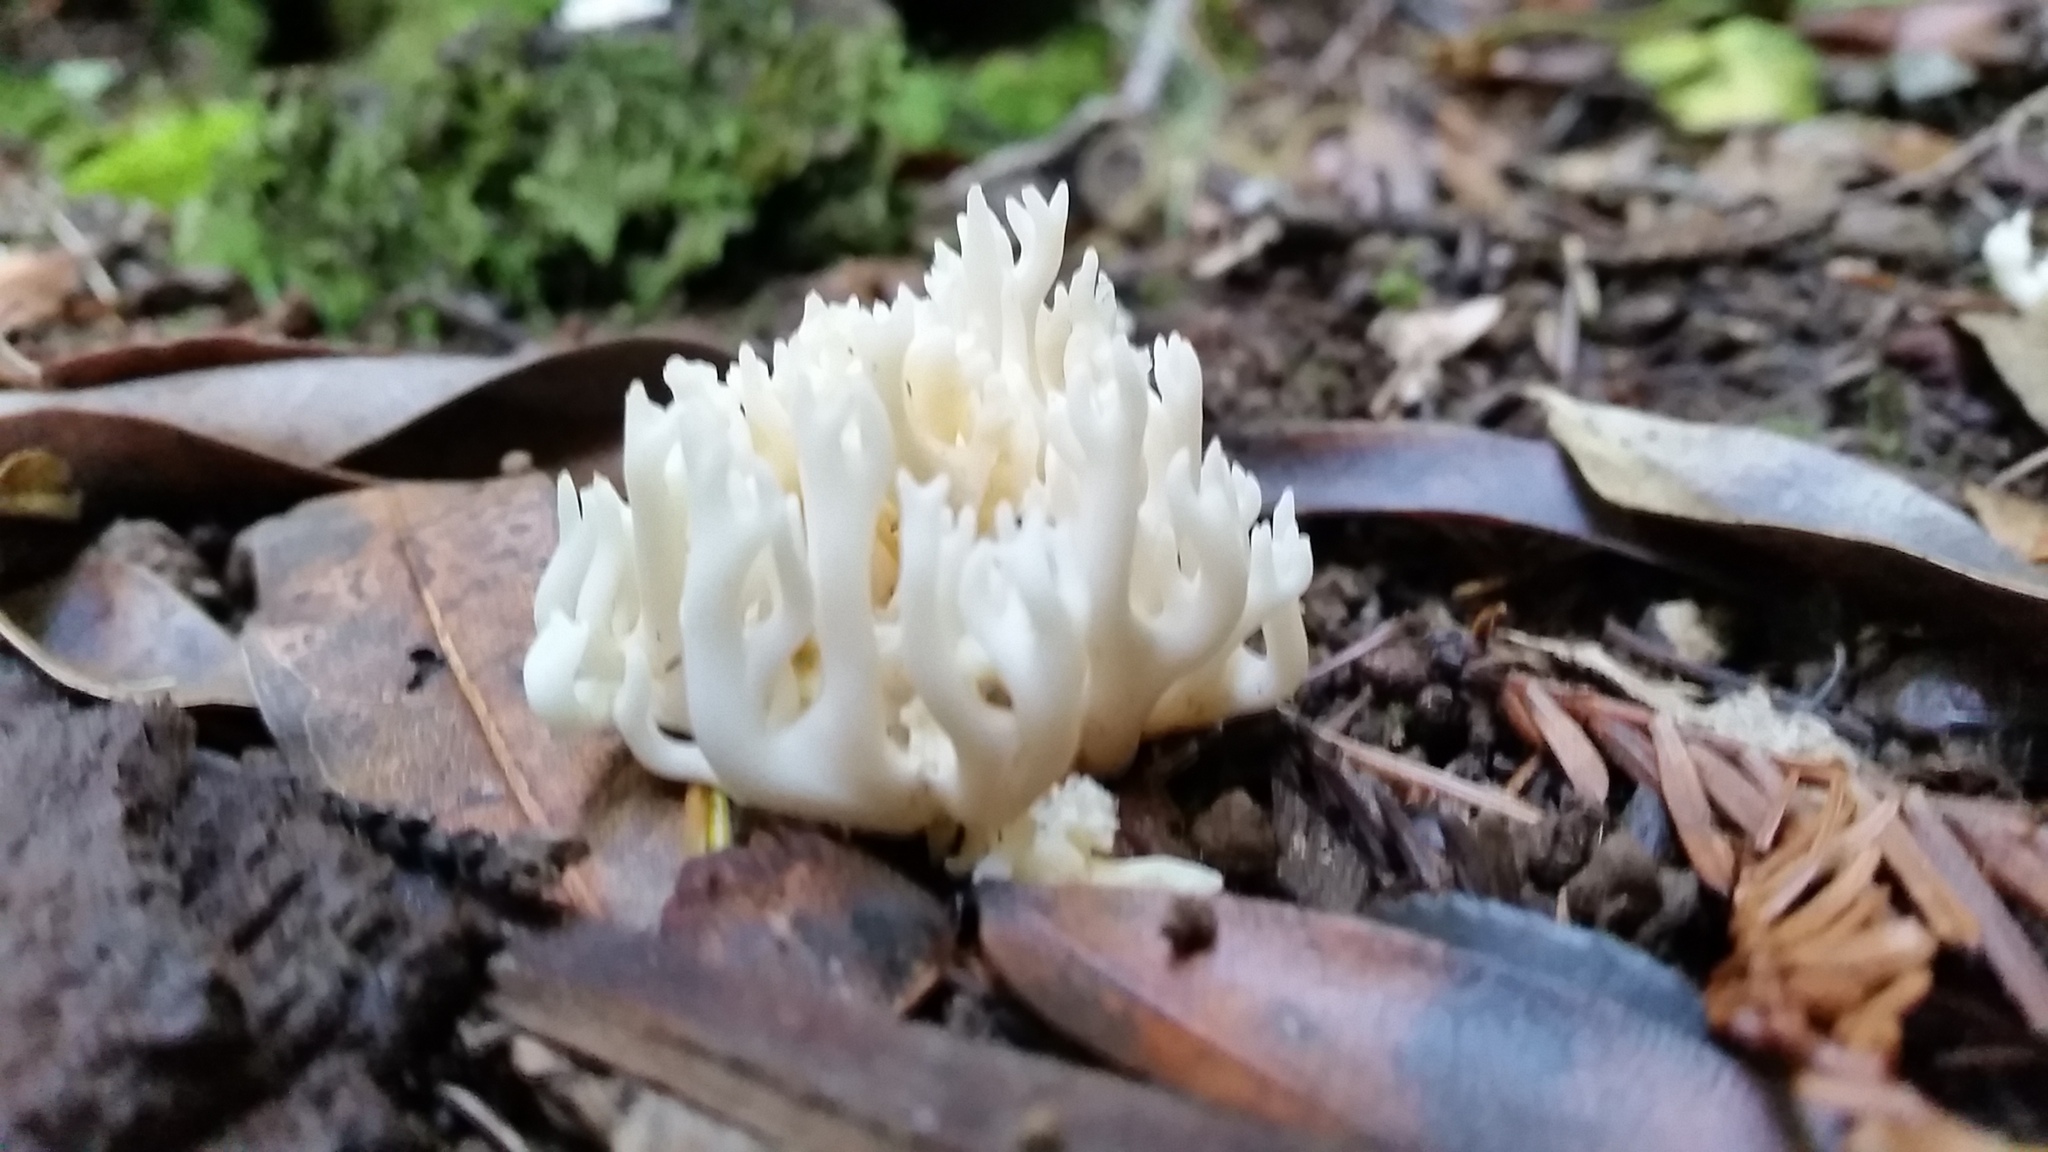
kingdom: Fungi
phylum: Basidiomycota
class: Agaricomycetes
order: Agaricales
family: Clavariaceae
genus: Ramariopsis
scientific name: Ramariopsis kunzei
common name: Ivory coral
